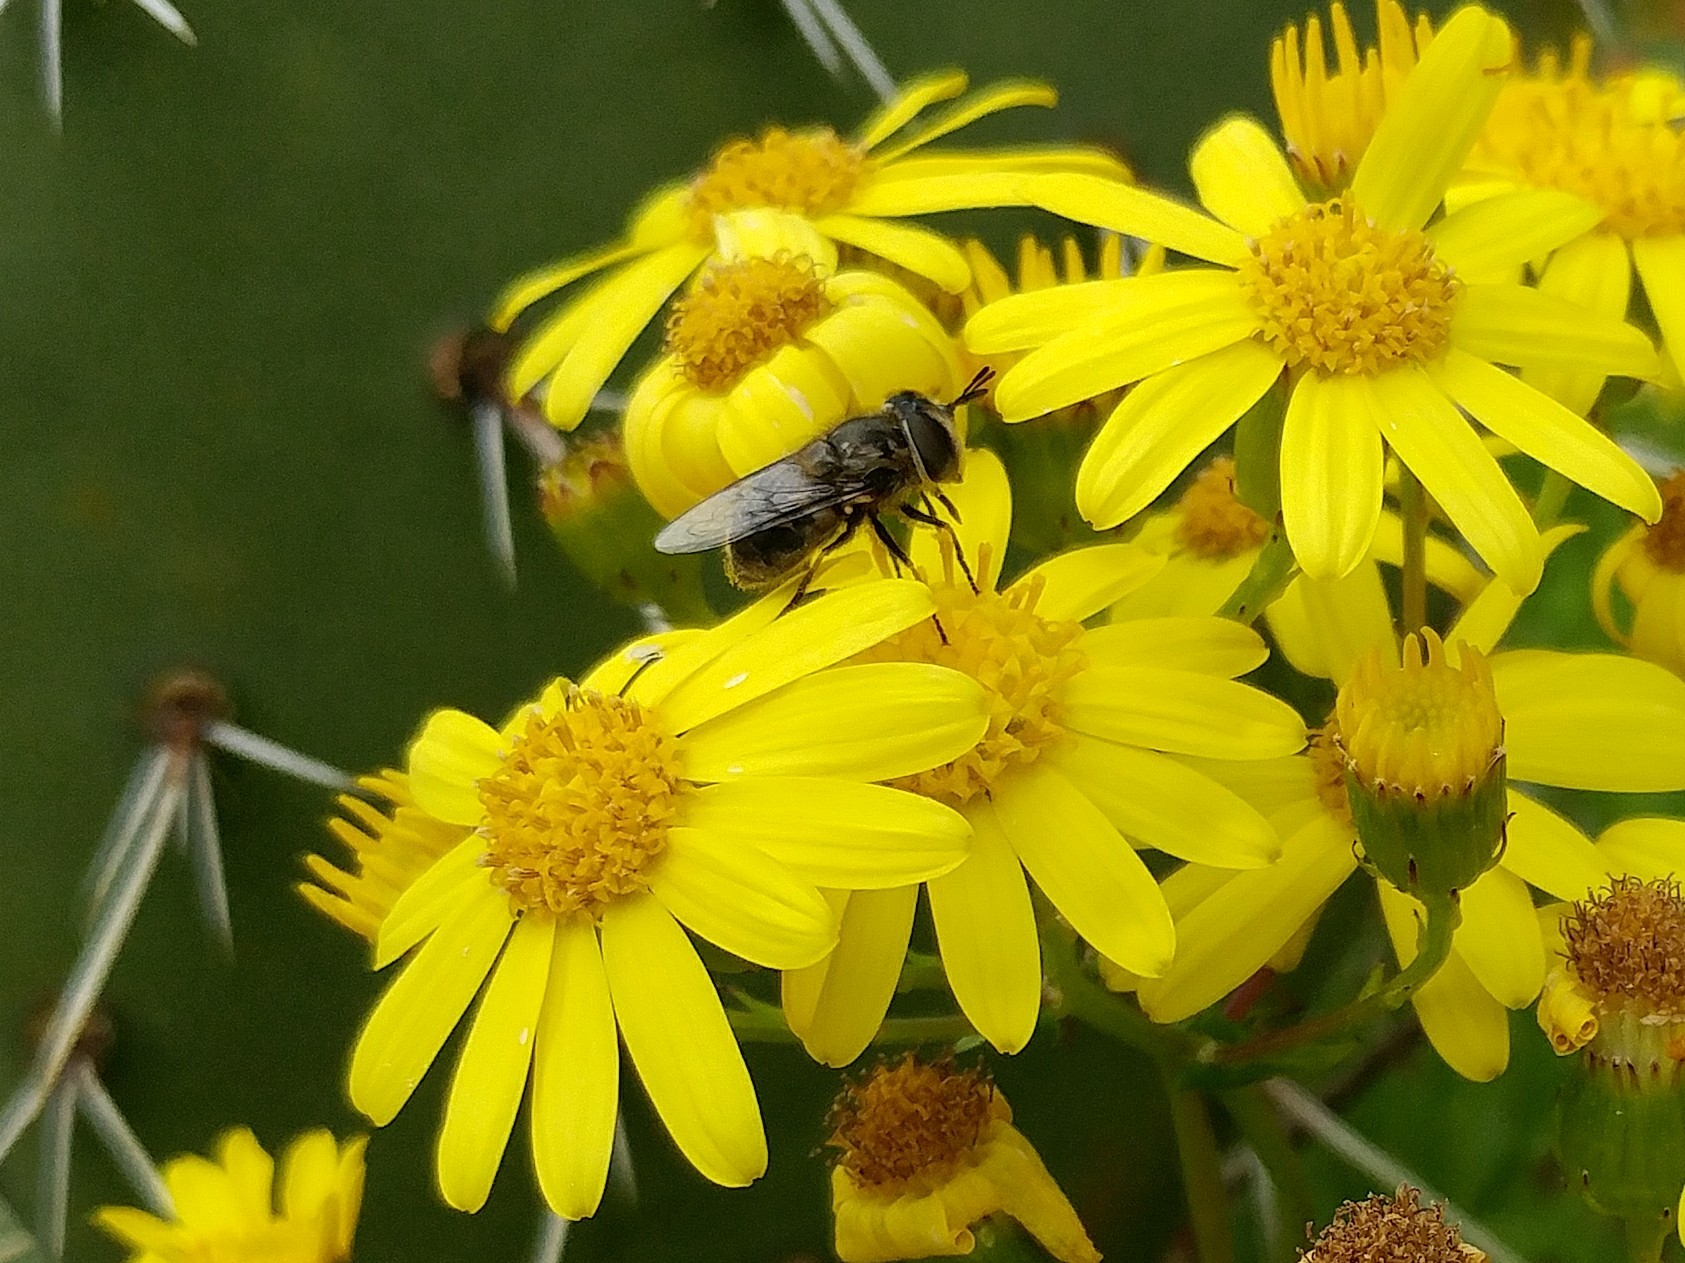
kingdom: Animalia
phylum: Arthropoda
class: Insecta
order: Diptera
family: Syrphidae
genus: Copestylum
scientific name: Copestylum lentum
